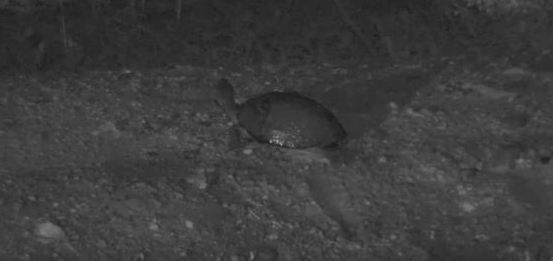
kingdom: Animalia
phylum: Chordata
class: Testudines
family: Pelomedusidae
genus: Pelusios
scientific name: Pelusios sinuatus
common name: Serrated hinged terrapin
